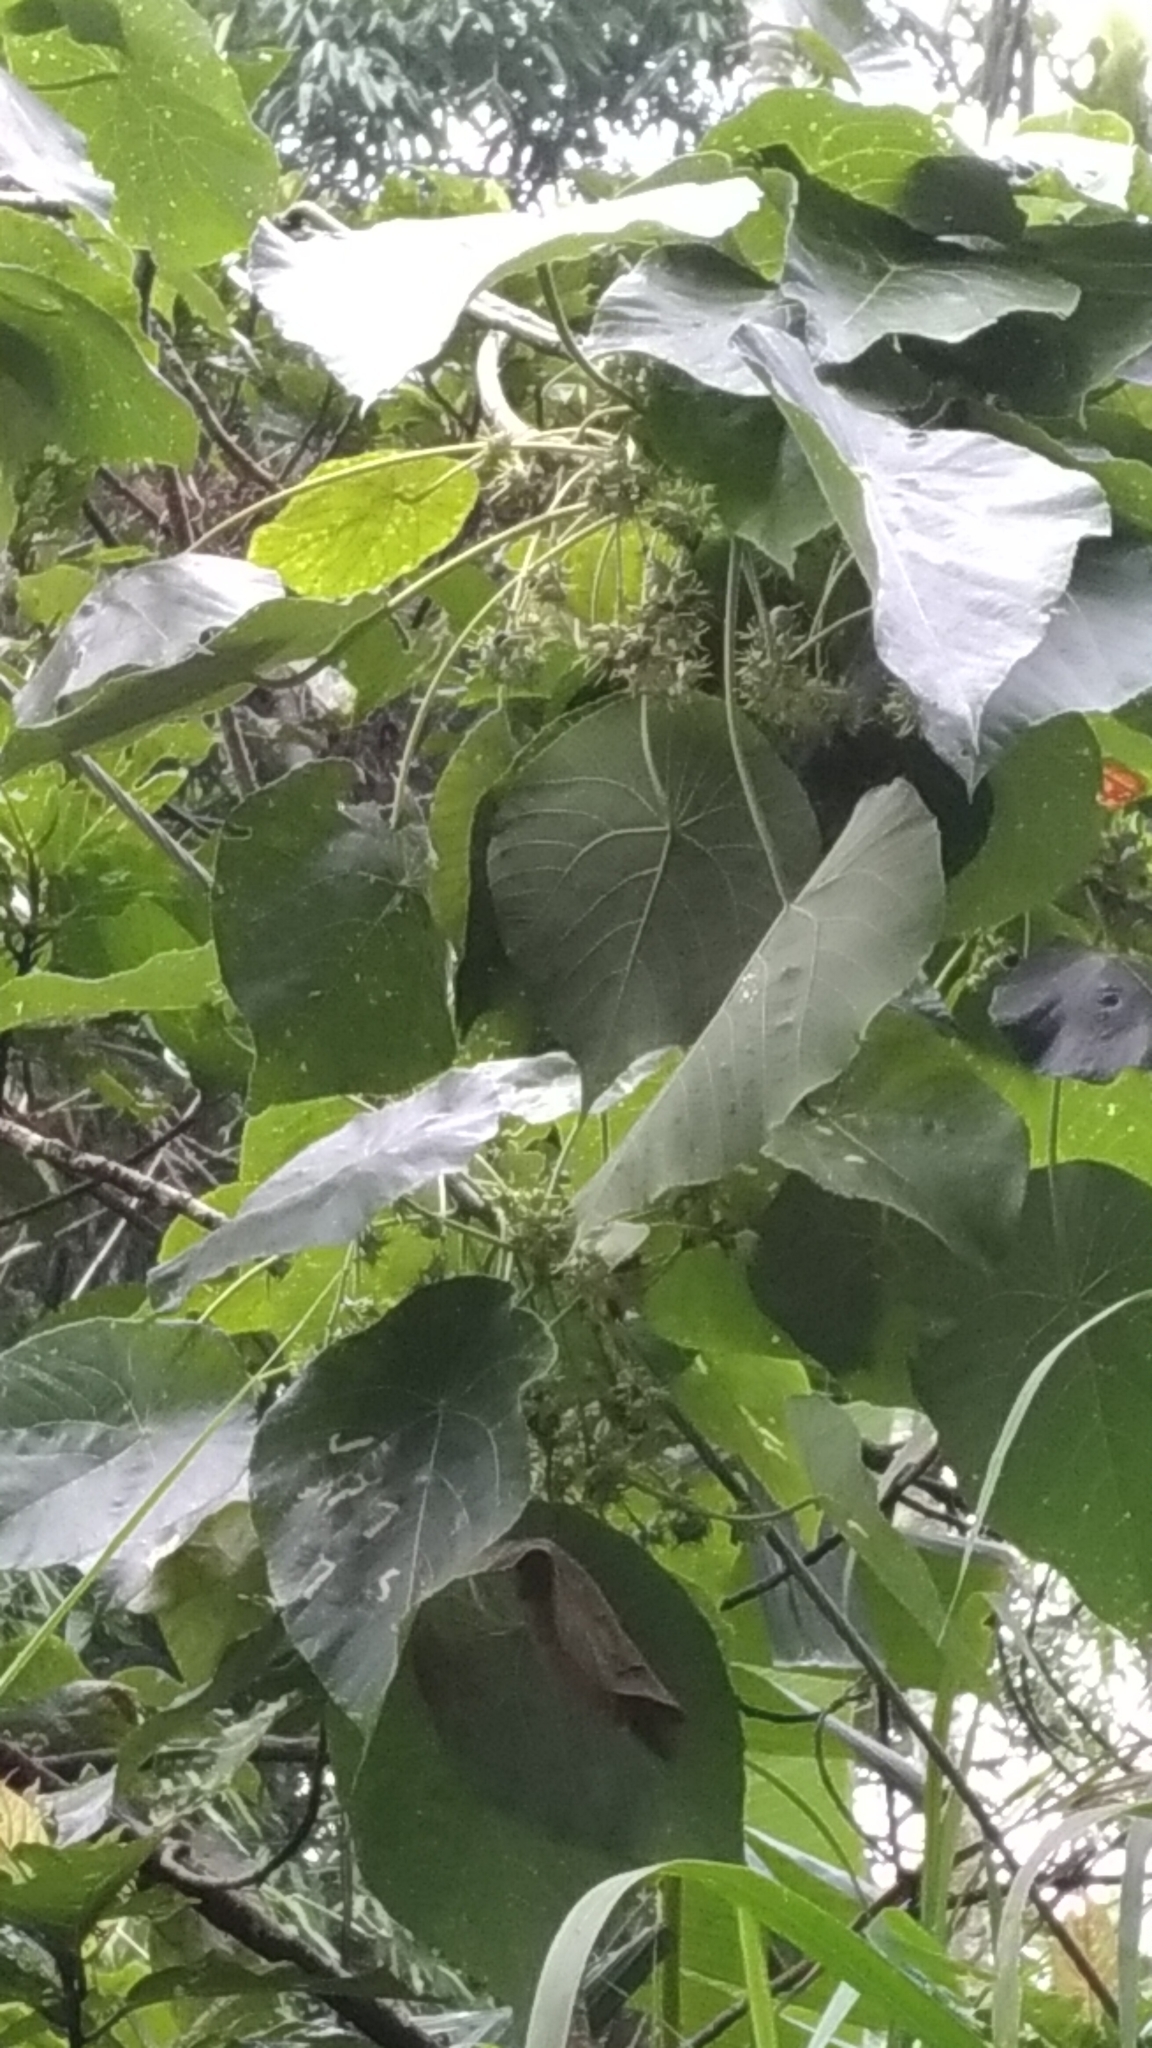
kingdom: Plantae
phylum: Tracheophyta
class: Magnoliopsida
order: Malpighiales
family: Euphorbiaceae
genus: Macaranga
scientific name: Macaranga tanarius
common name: Parasol leaf tree
